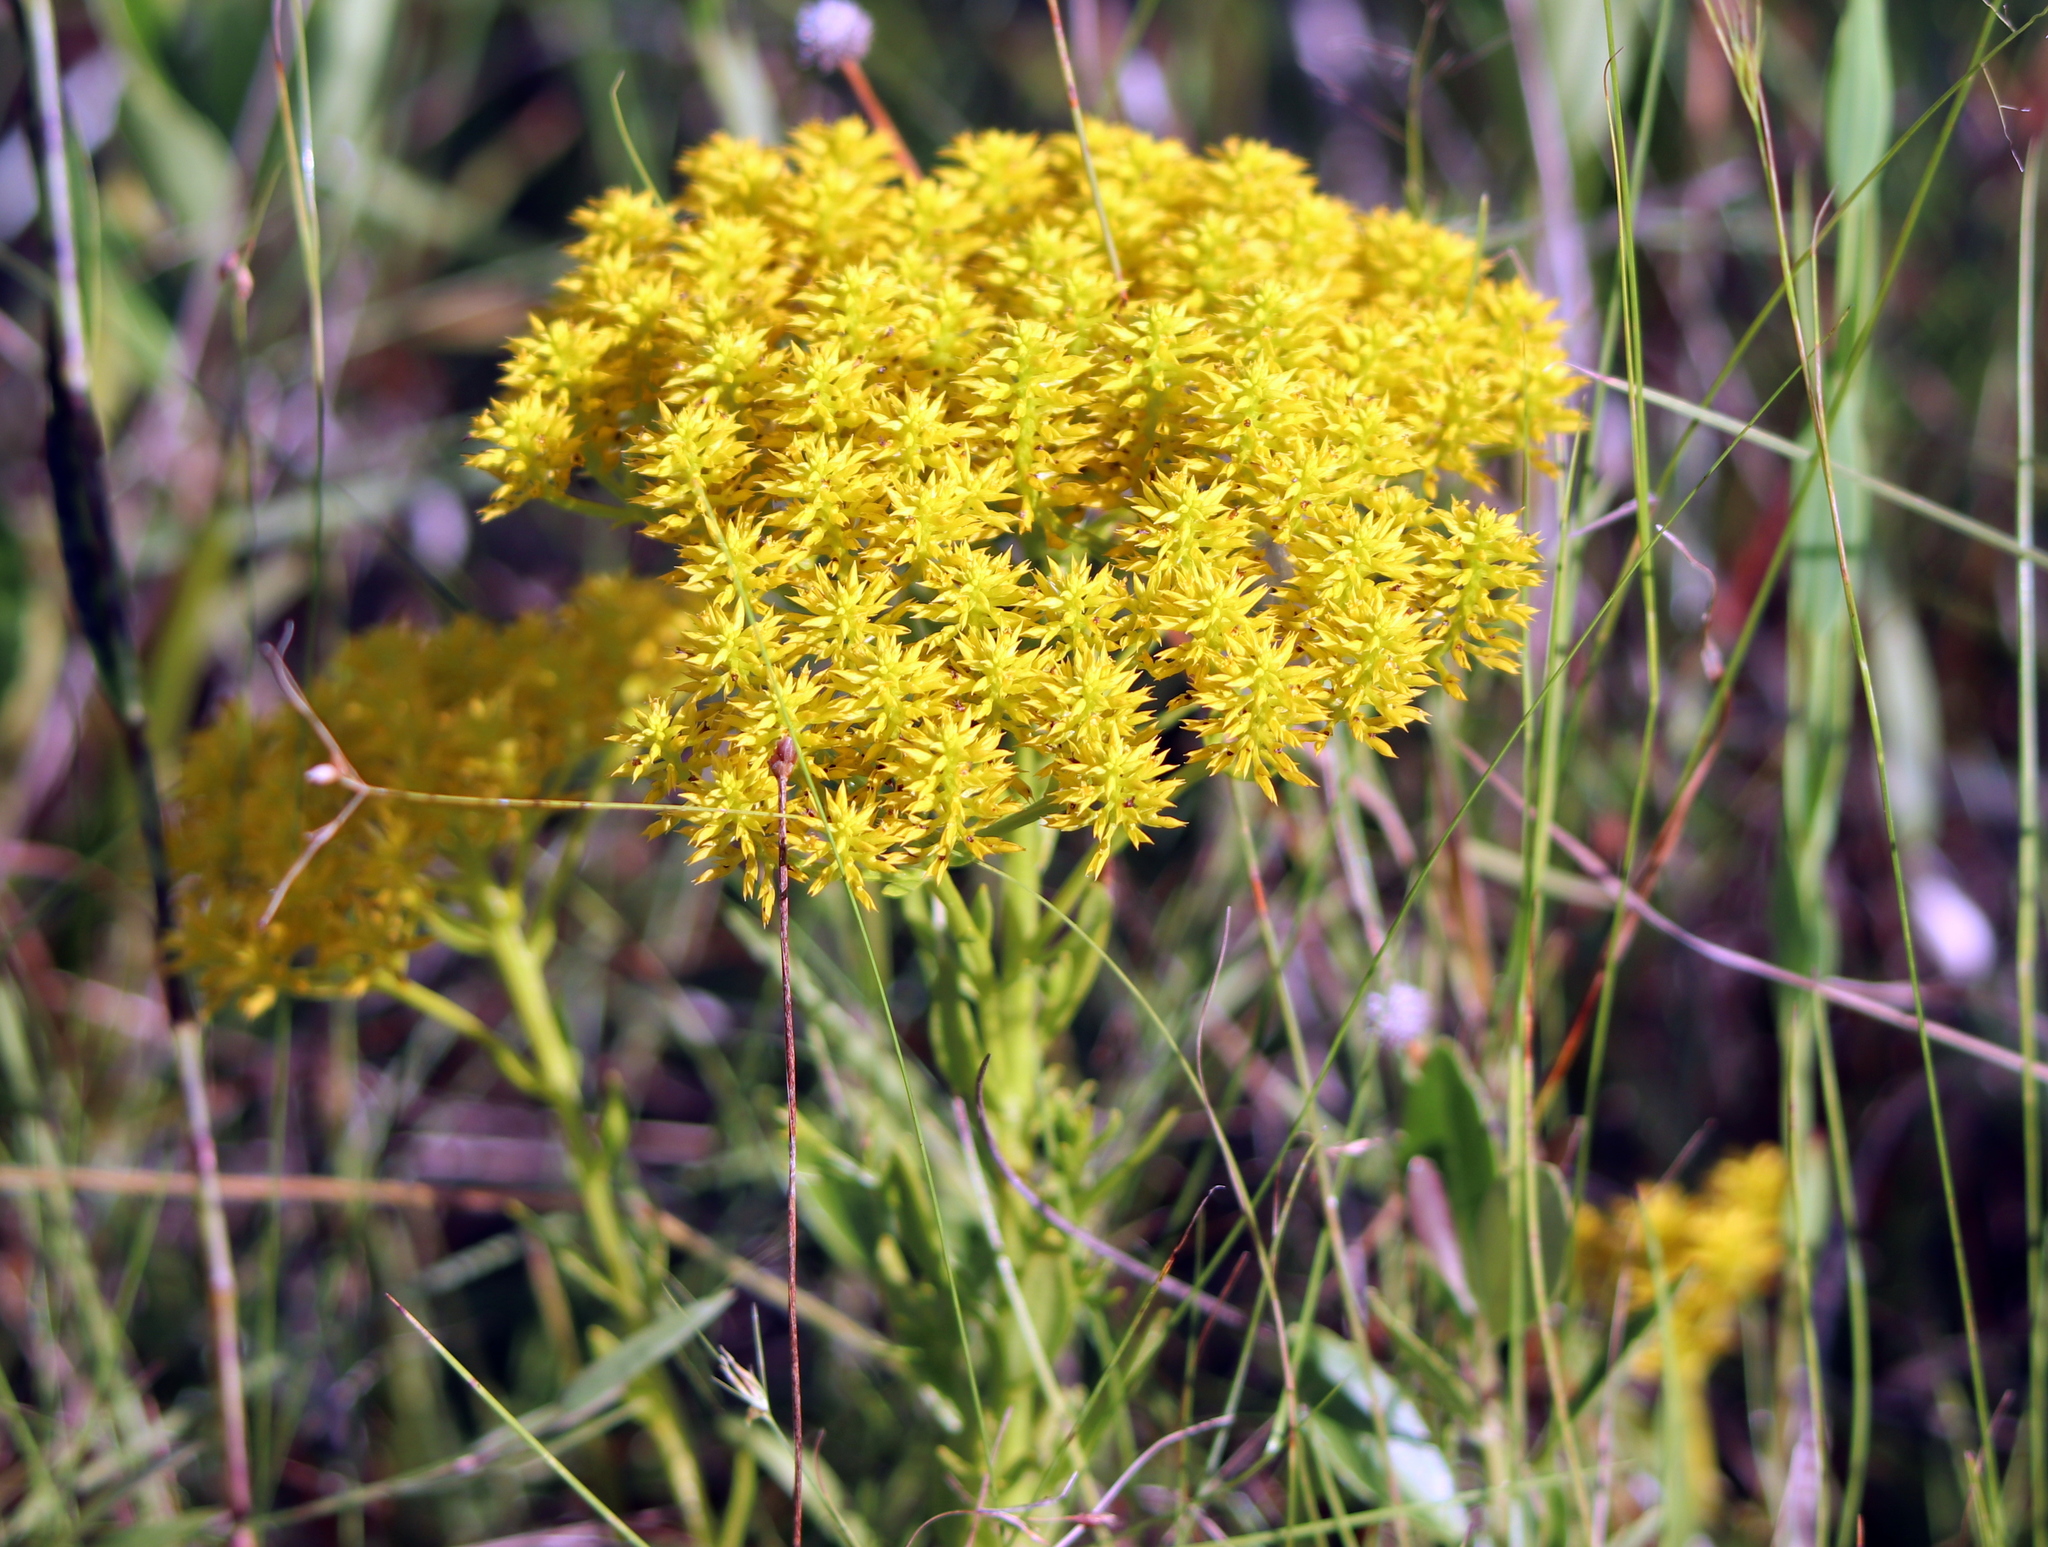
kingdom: Plantae
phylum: Tracheophyta
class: Magnoliopsida
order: Fabales
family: Polygalaceae
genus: Polygala
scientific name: Polygala ramosa
